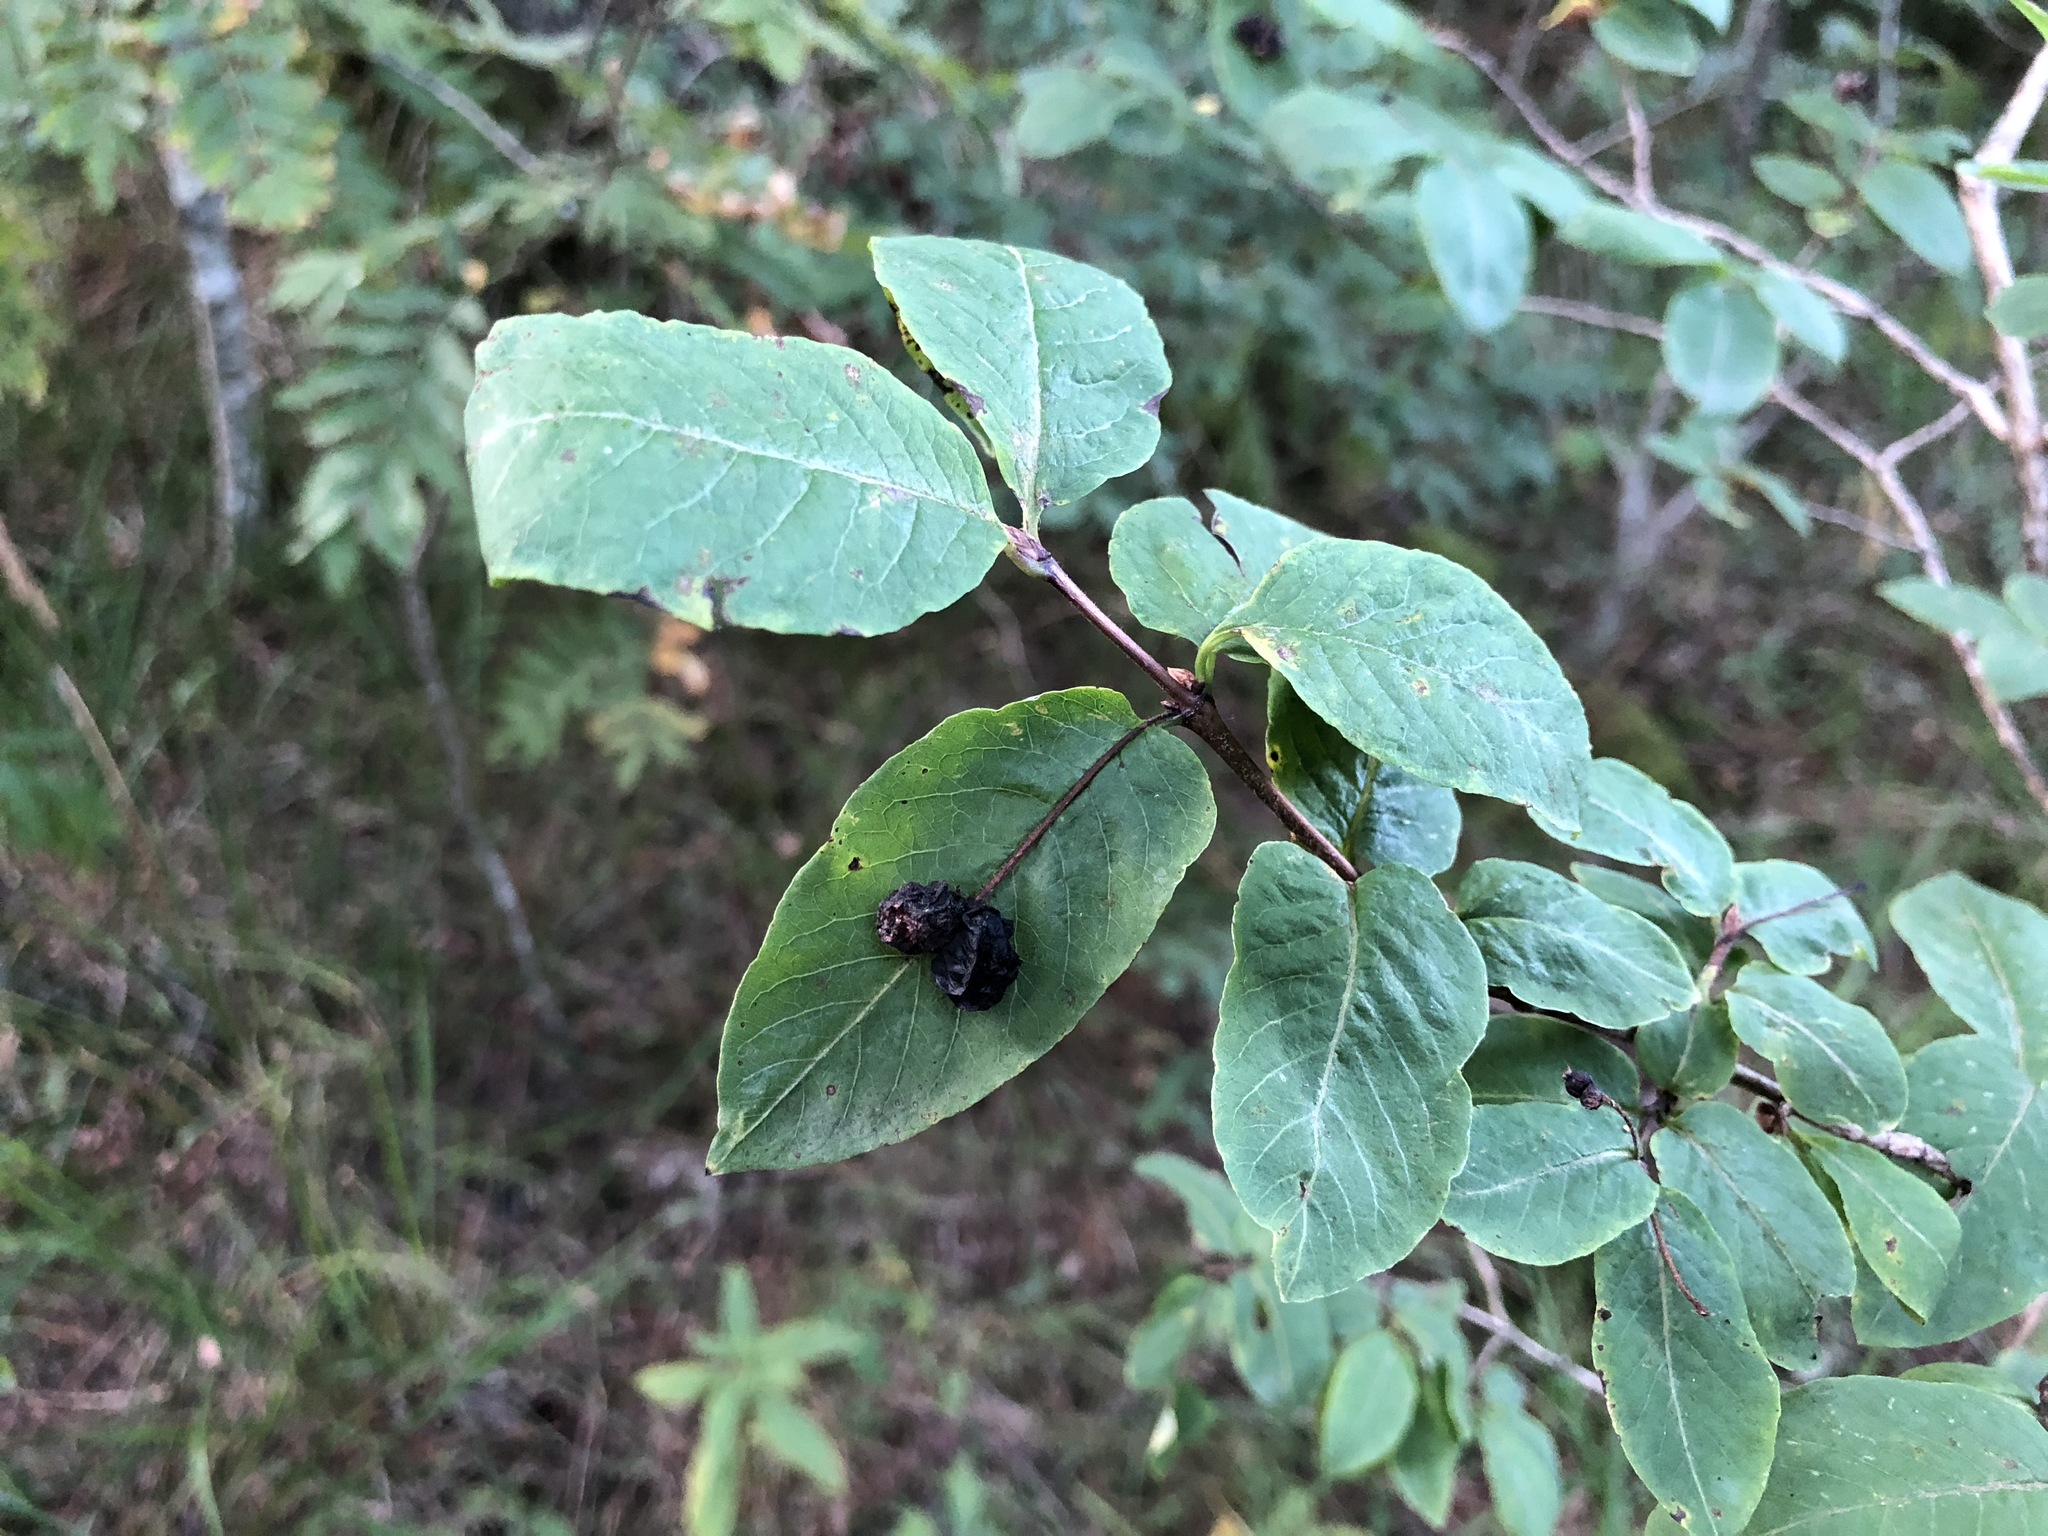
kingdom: Plantae
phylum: Tracheophyta
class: Magnoliopsida
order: Dipsacales
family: Caprifoliaceae
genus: Lonicera
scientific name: Lonicera nigra
